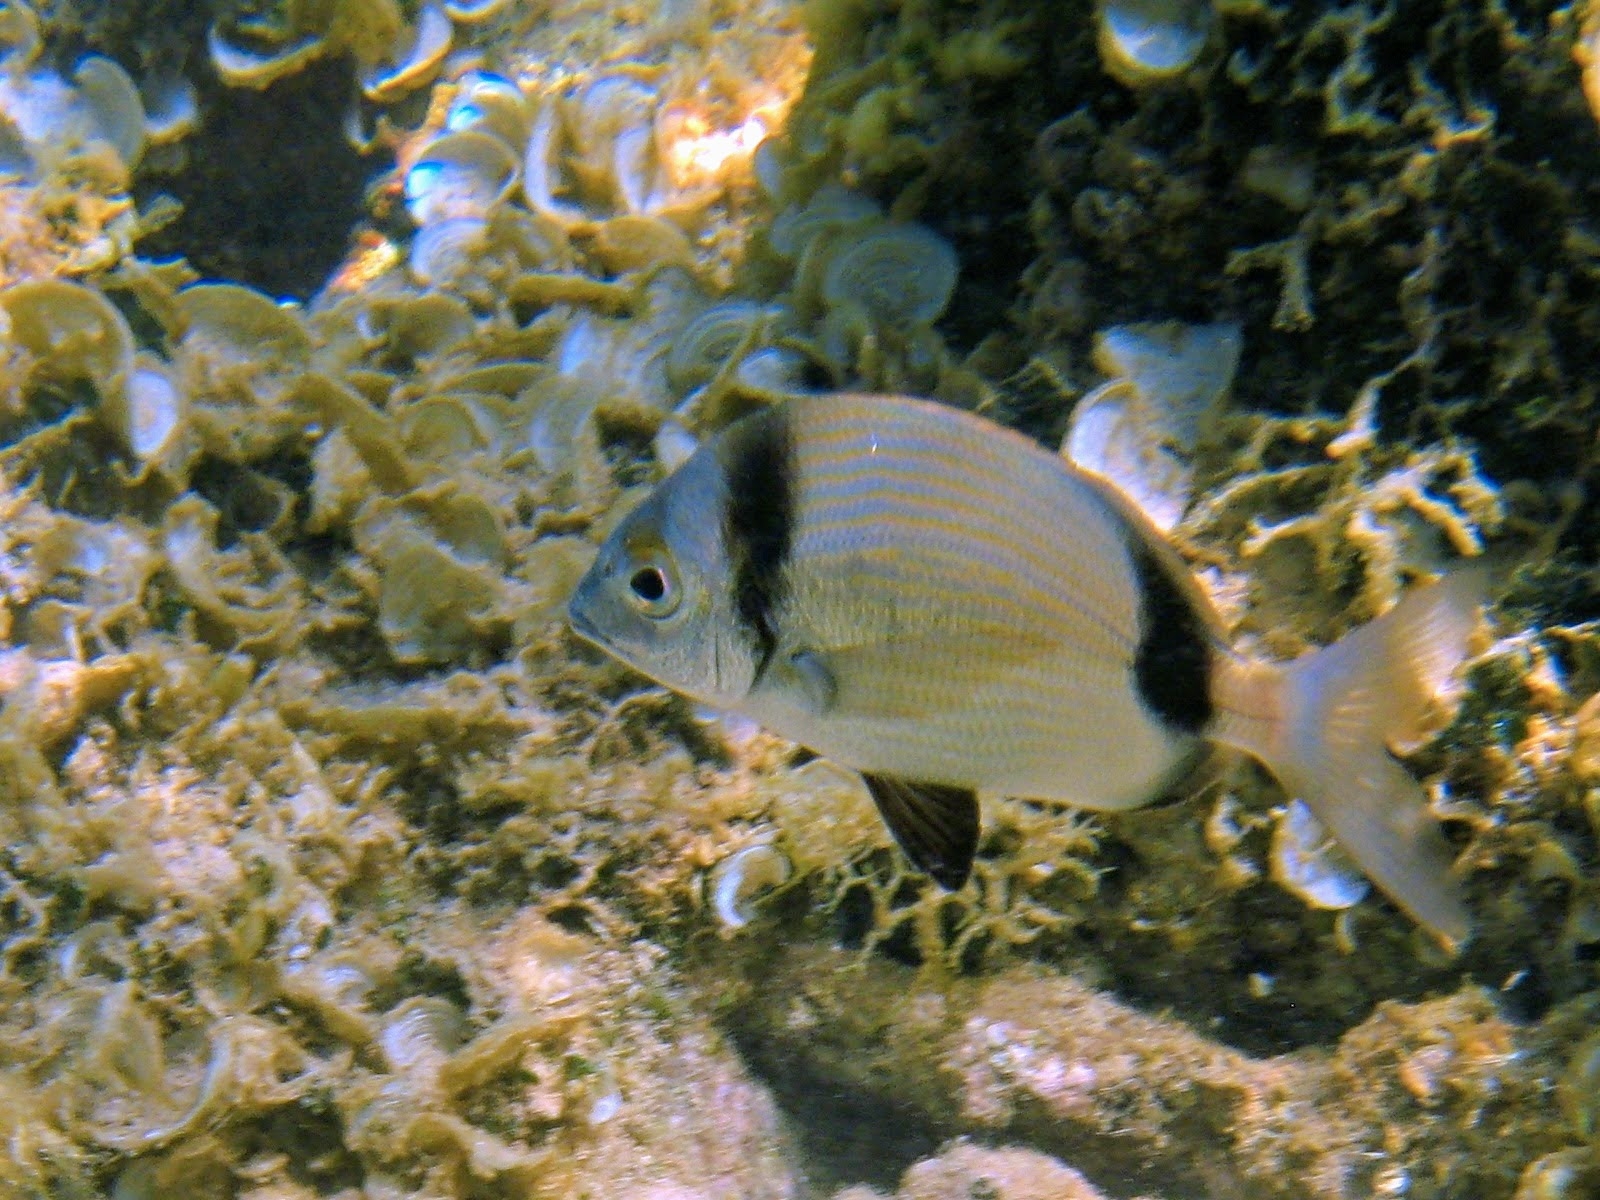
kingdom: Animalia
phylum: Chordata
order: Perciformes
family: Sparidae
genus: Diplodus
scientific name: Diplodus vulgaris
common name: Common two-banded seabream
